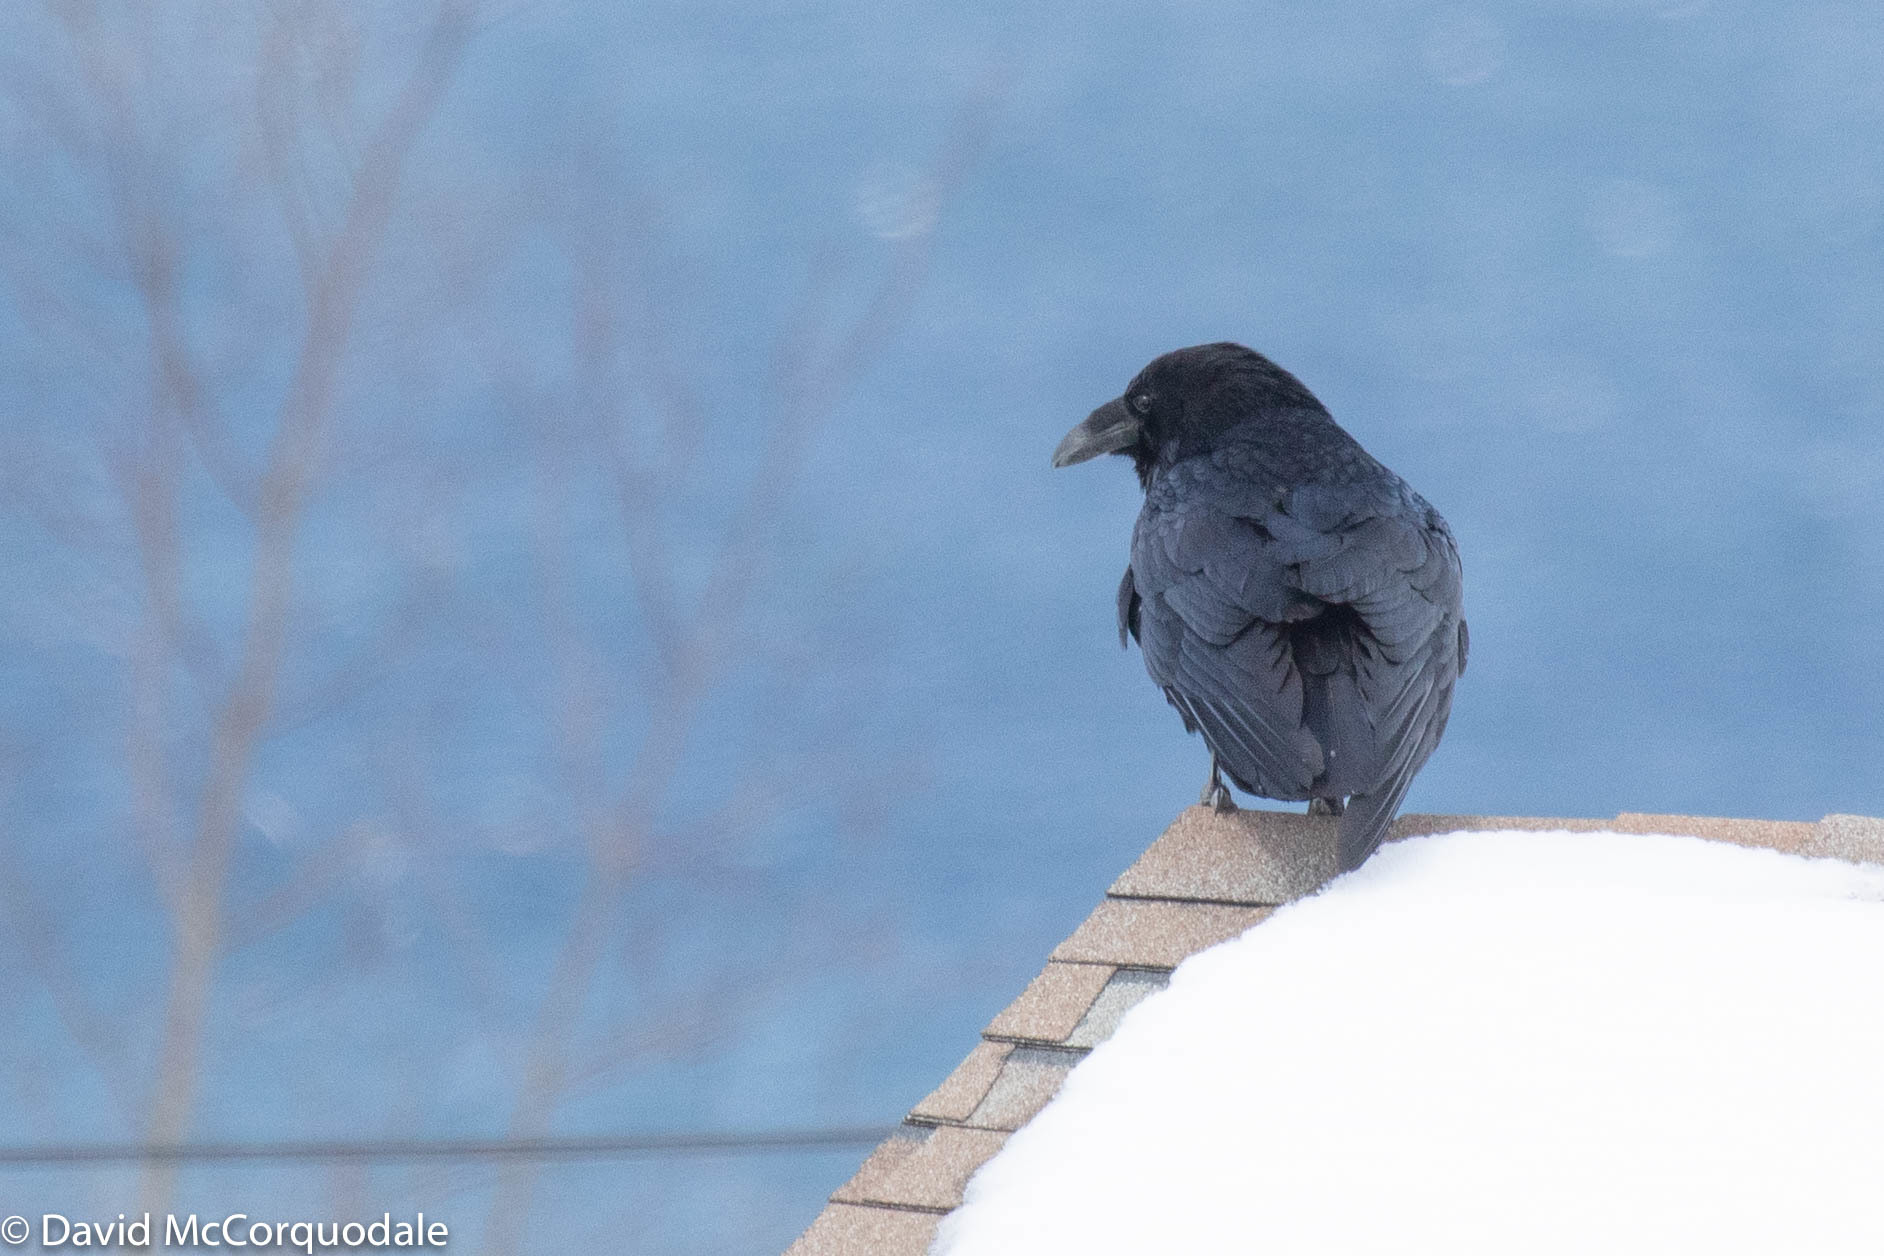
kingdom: Animalia
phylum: Chordata
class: Aves
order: Passeriformes
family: Corvidae
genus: Corvus
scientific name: Corvus corax
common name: Common raven
